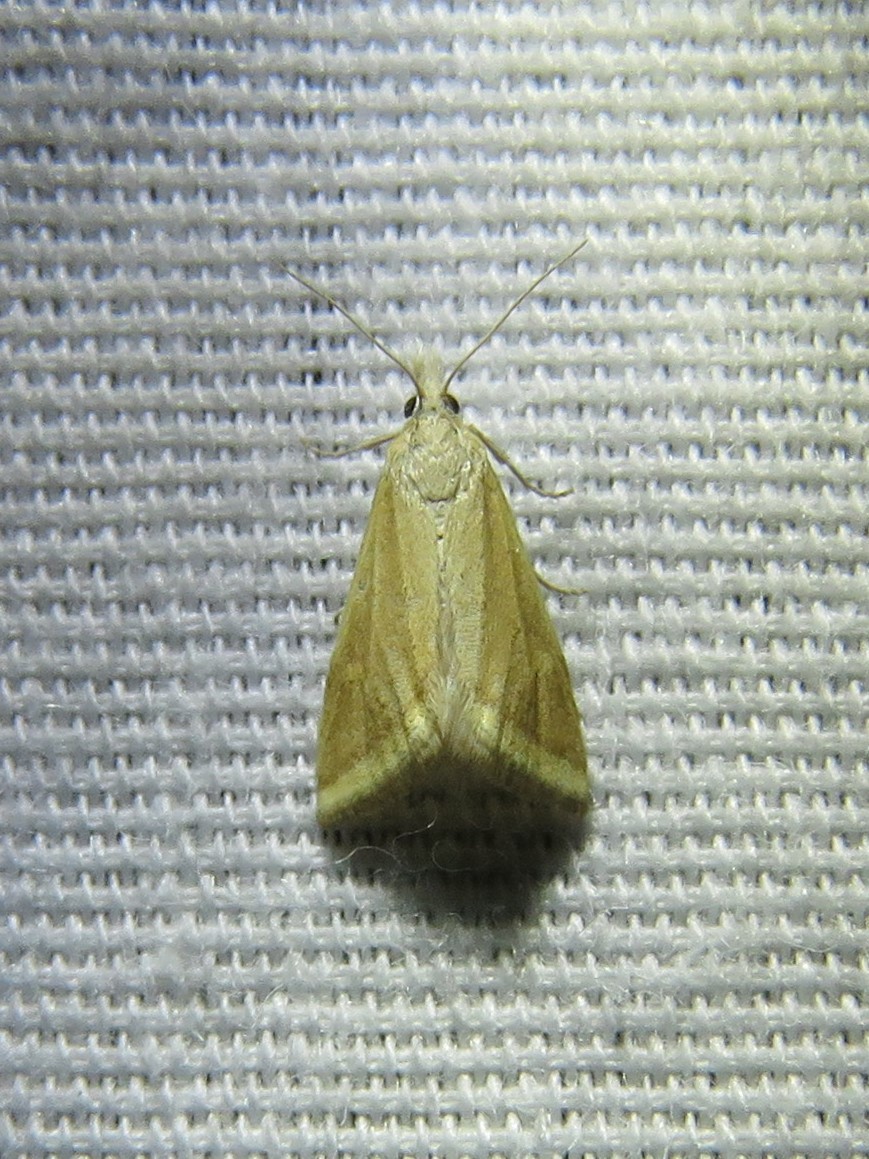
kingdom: Animalia
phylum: Arthropoda
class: Insecta
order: Lepidoptera
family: Crambidae
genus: Microtheoris
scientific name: Microtheoris vibicalis
